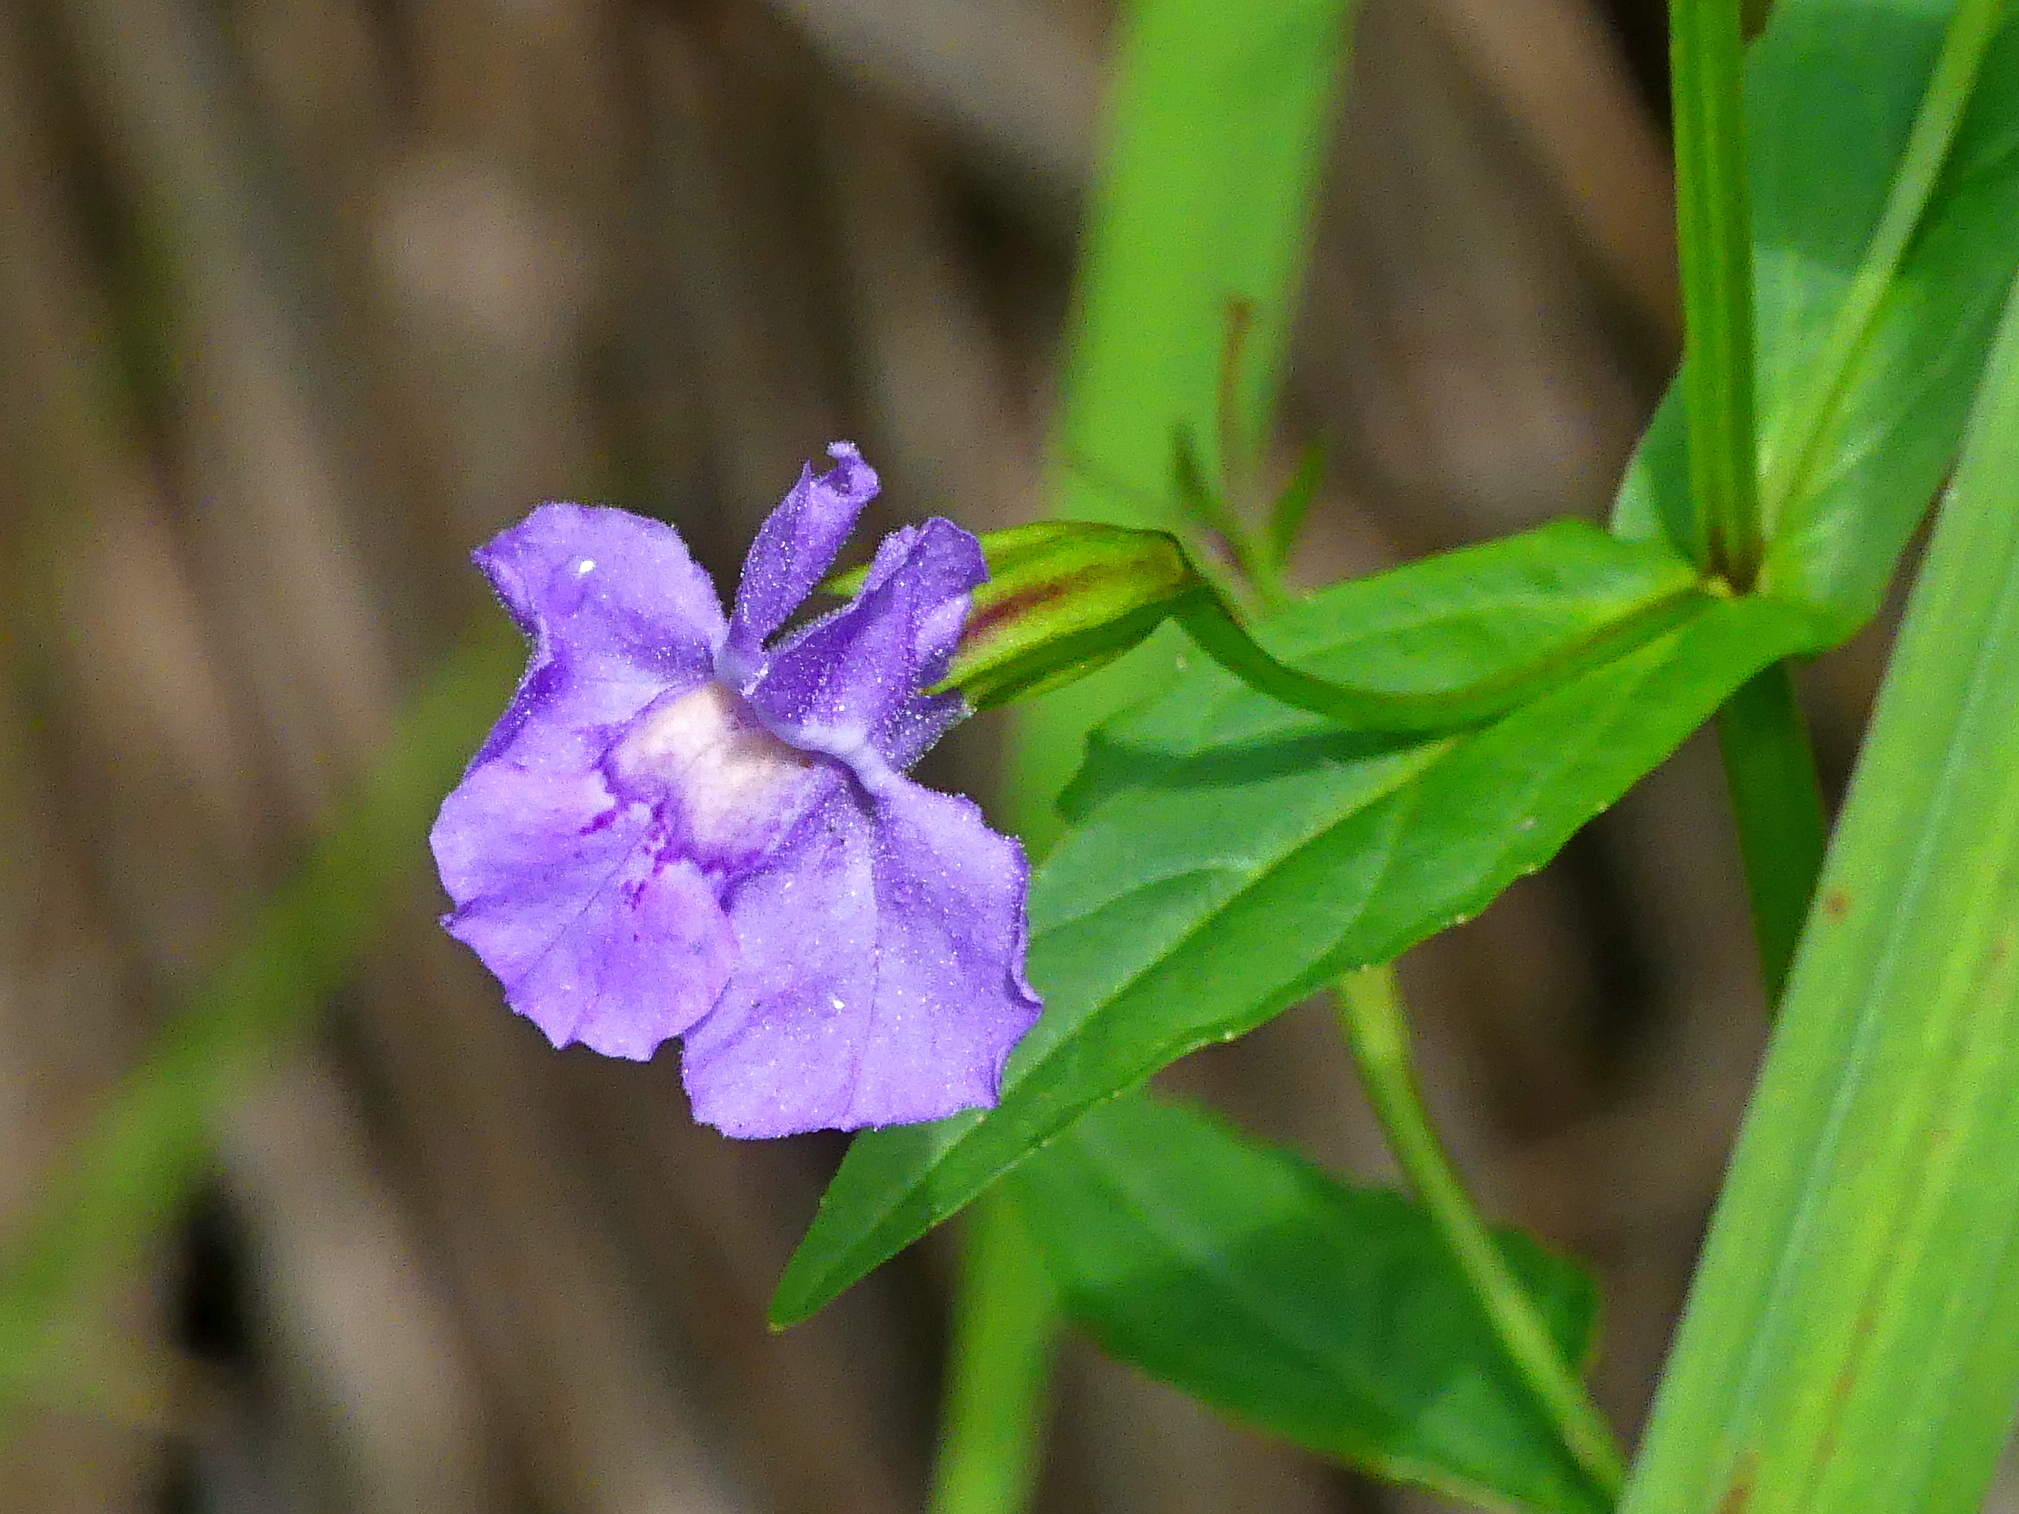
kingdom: Plantae
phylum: Tracheophyta
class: Magnoliopsida
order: Lamiales
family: Phrymaceae
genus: Mimulus
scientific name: Mimulus ringens
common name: Allegheny monkeyflower
